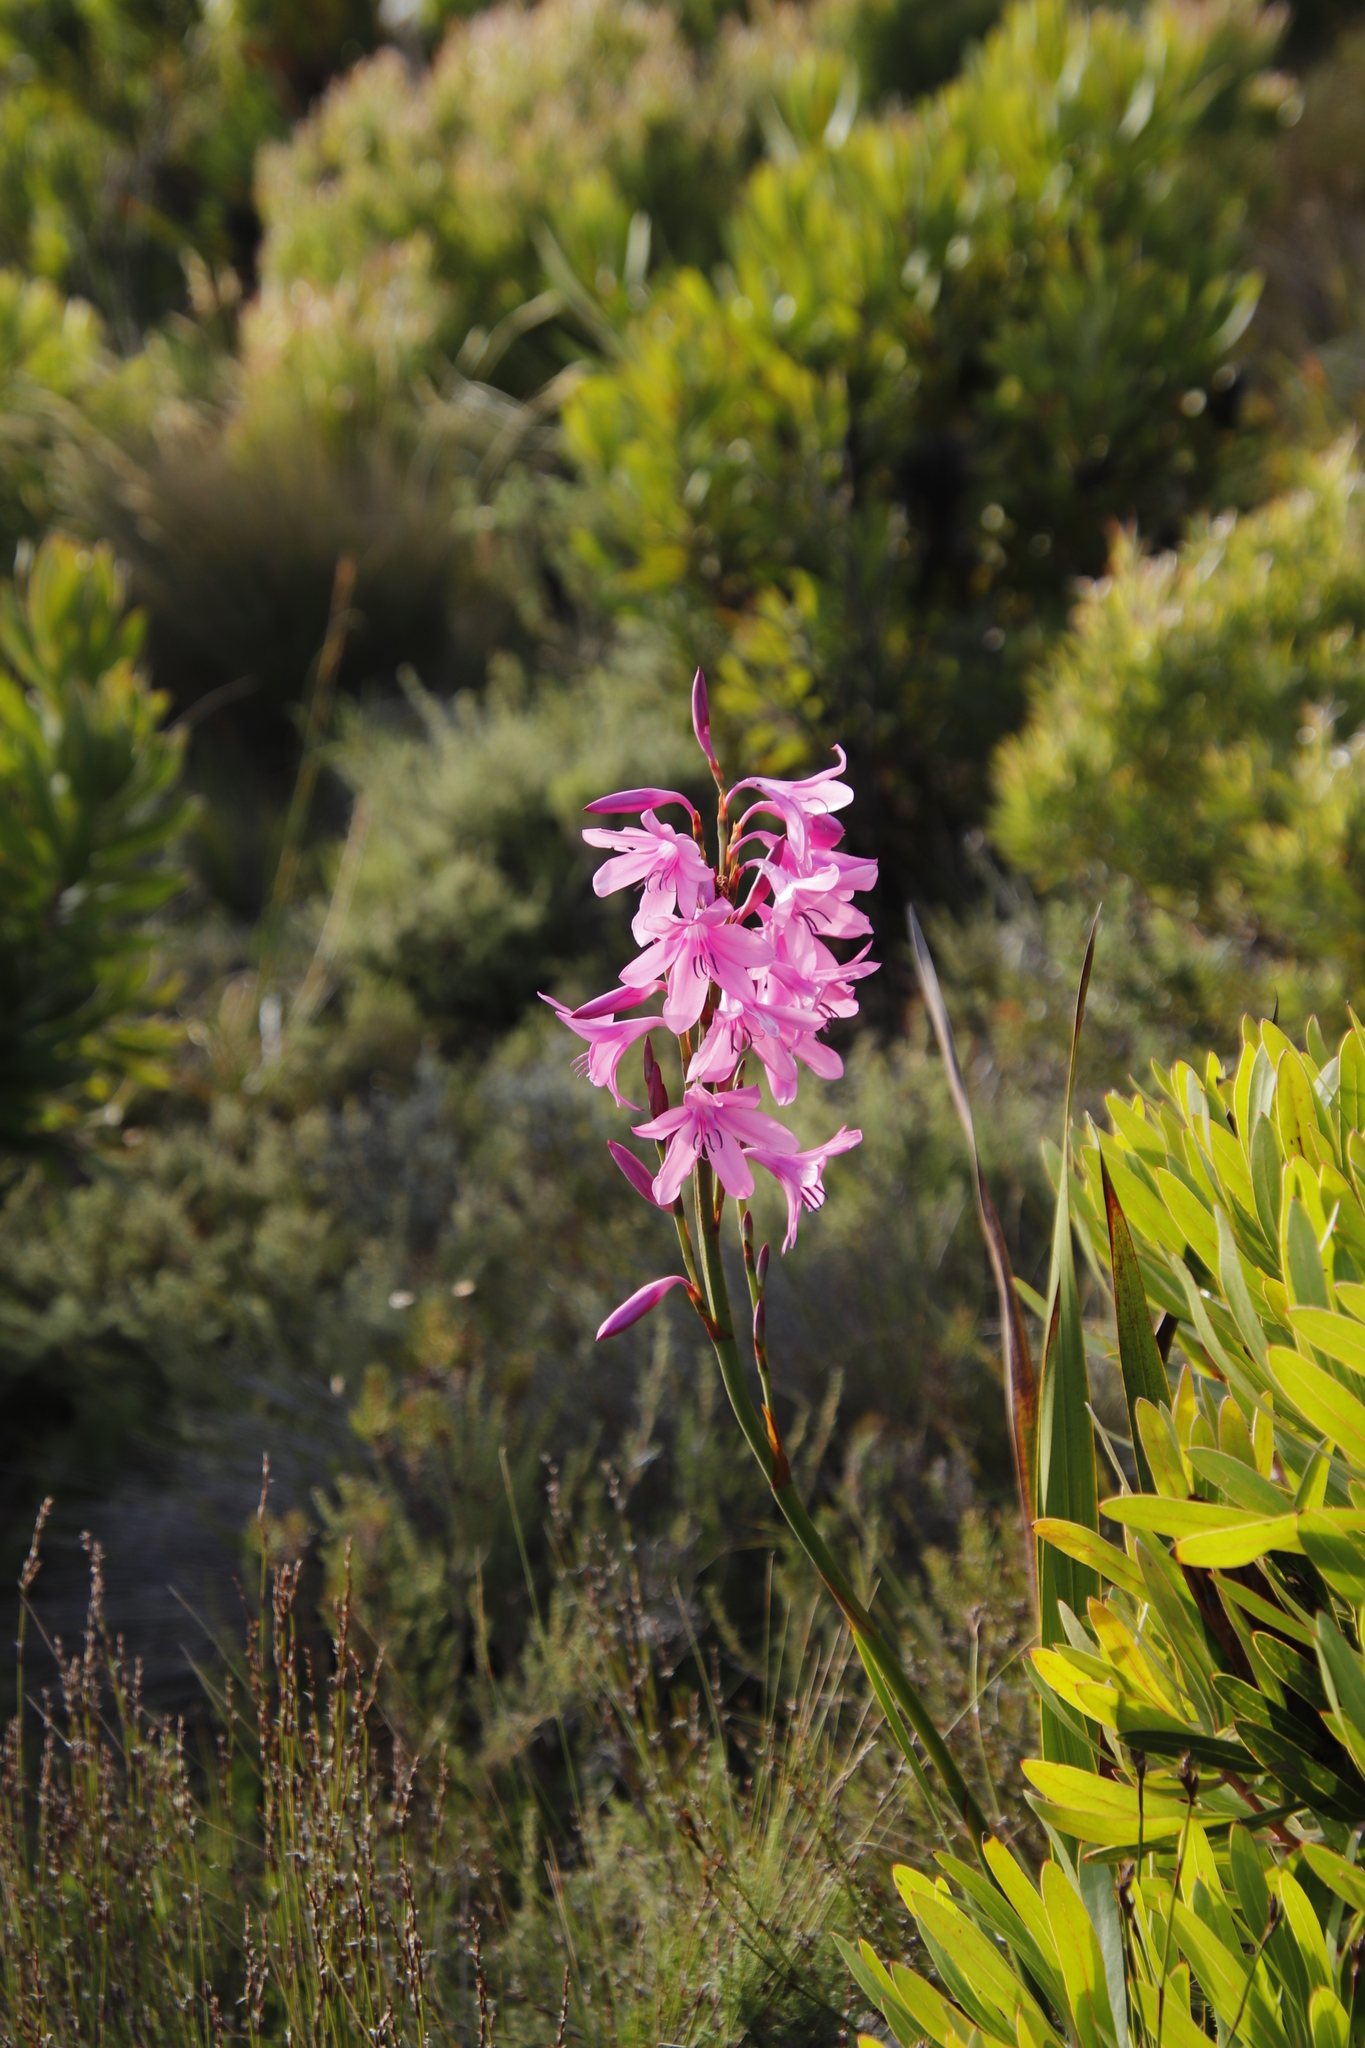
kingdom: Plantae
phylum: Tracheophyta
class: Liliopsida
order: Asparagales
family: Iridaceae
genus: Watsonia
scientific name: Watsonia borbonica
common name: Bugle-lily
